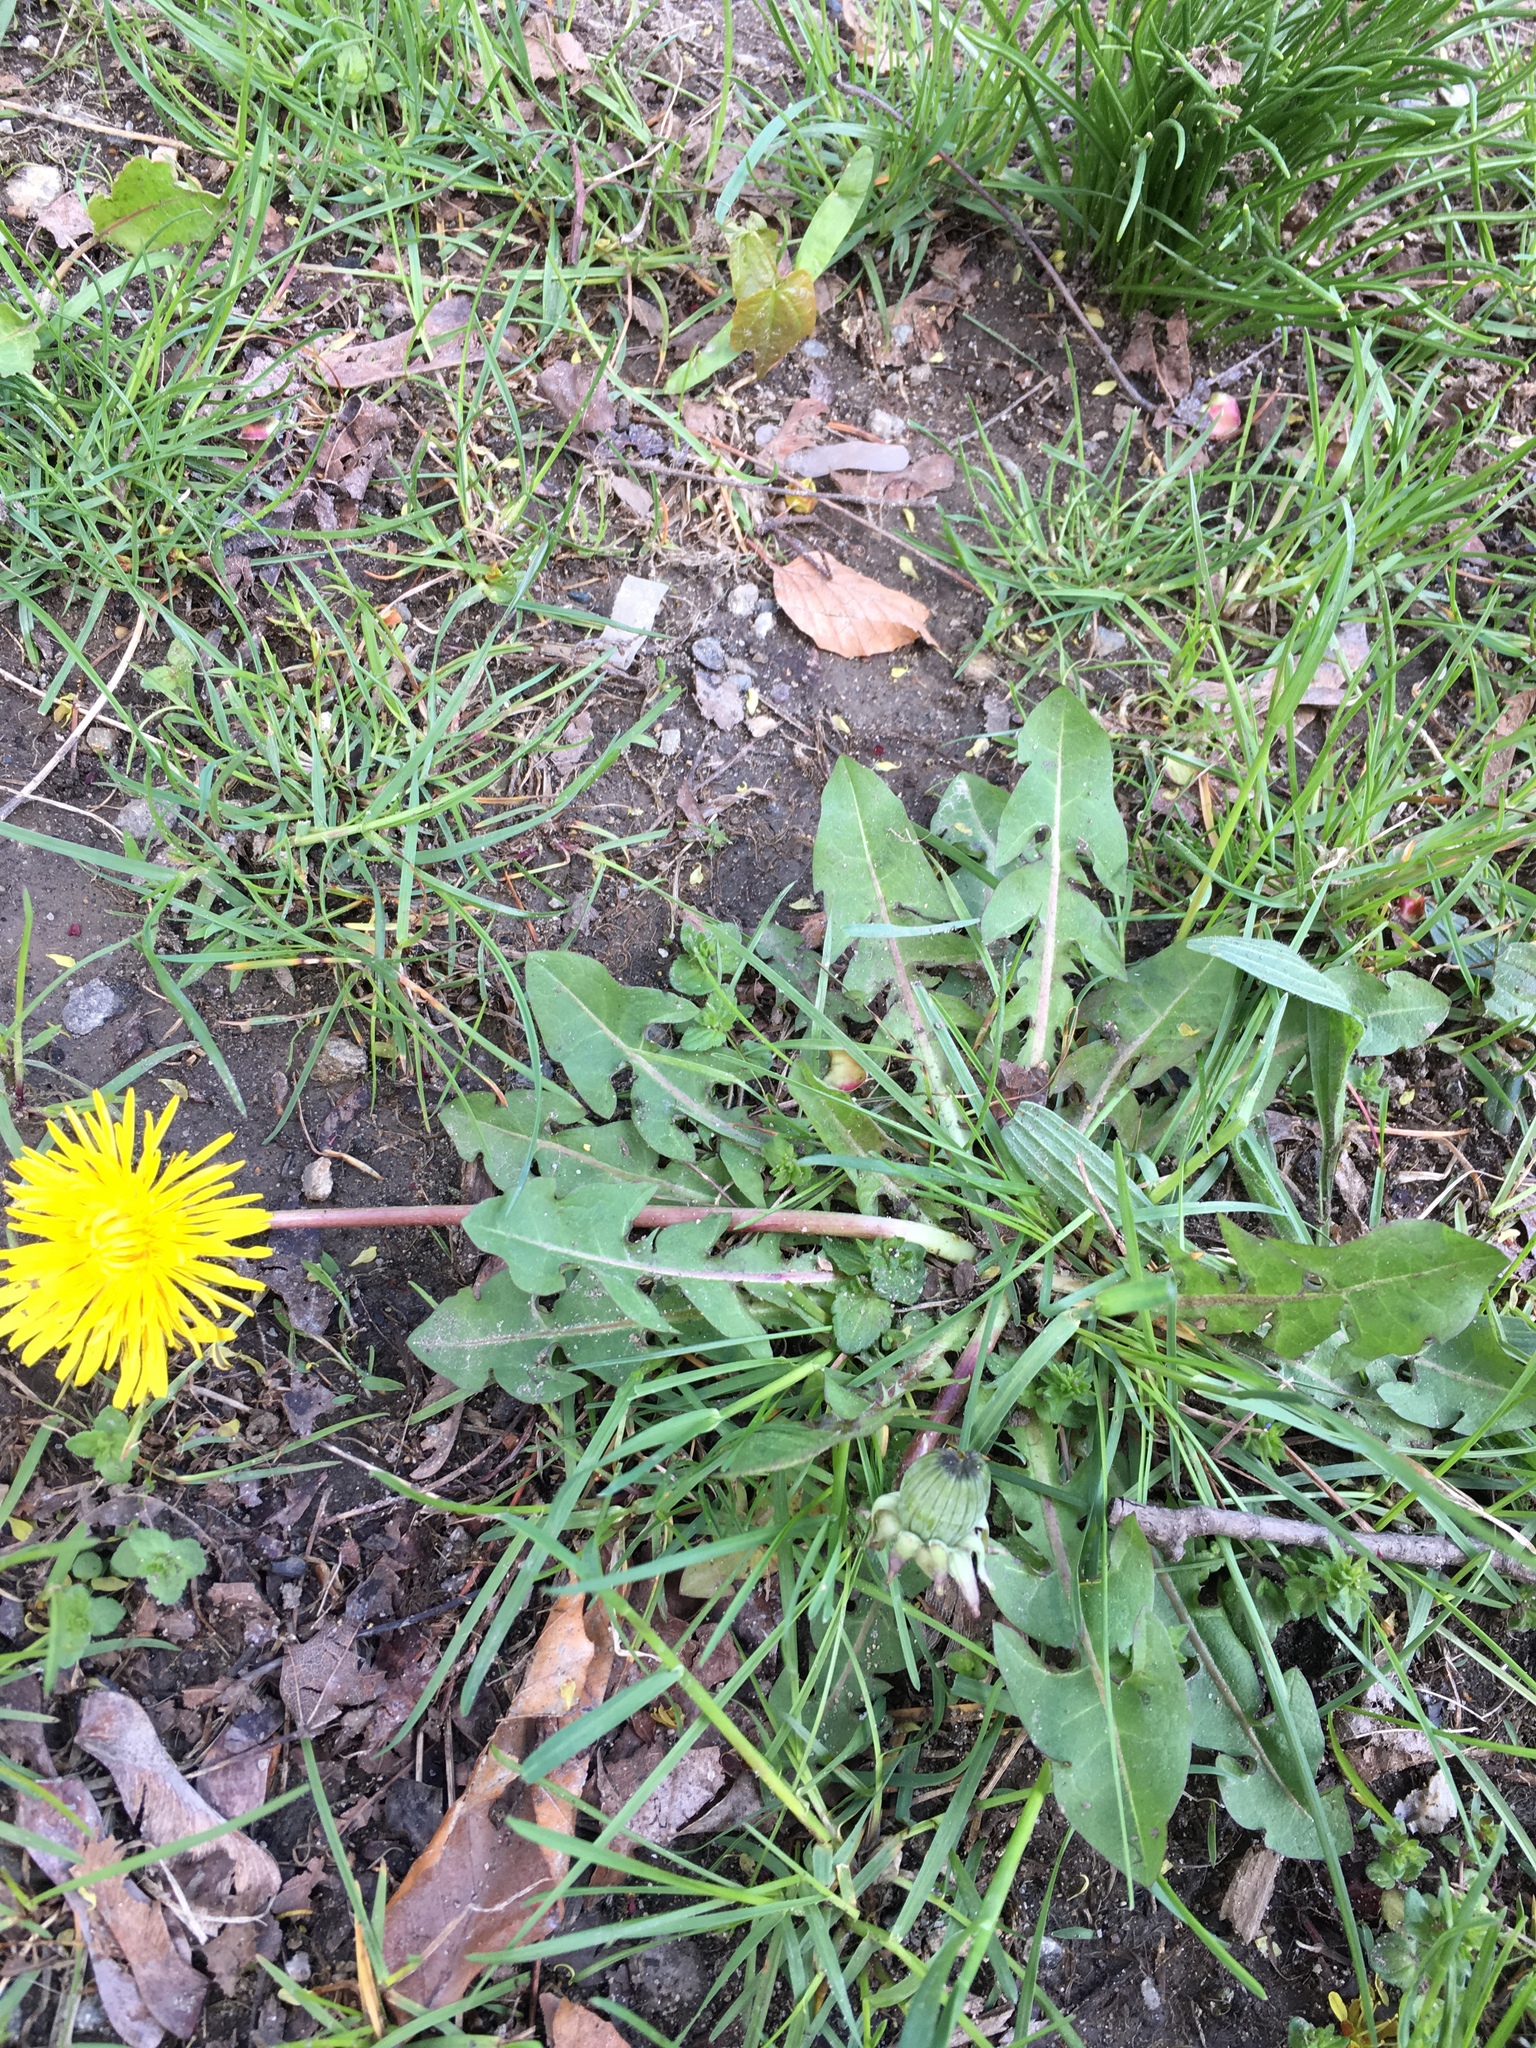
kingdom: Plantae
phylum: Tracheophyta
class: Magnoliopsida
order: Asterales
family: Asteraceae
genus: Taraxacum
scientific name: Taraxacum officinale
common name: Common dandelion
